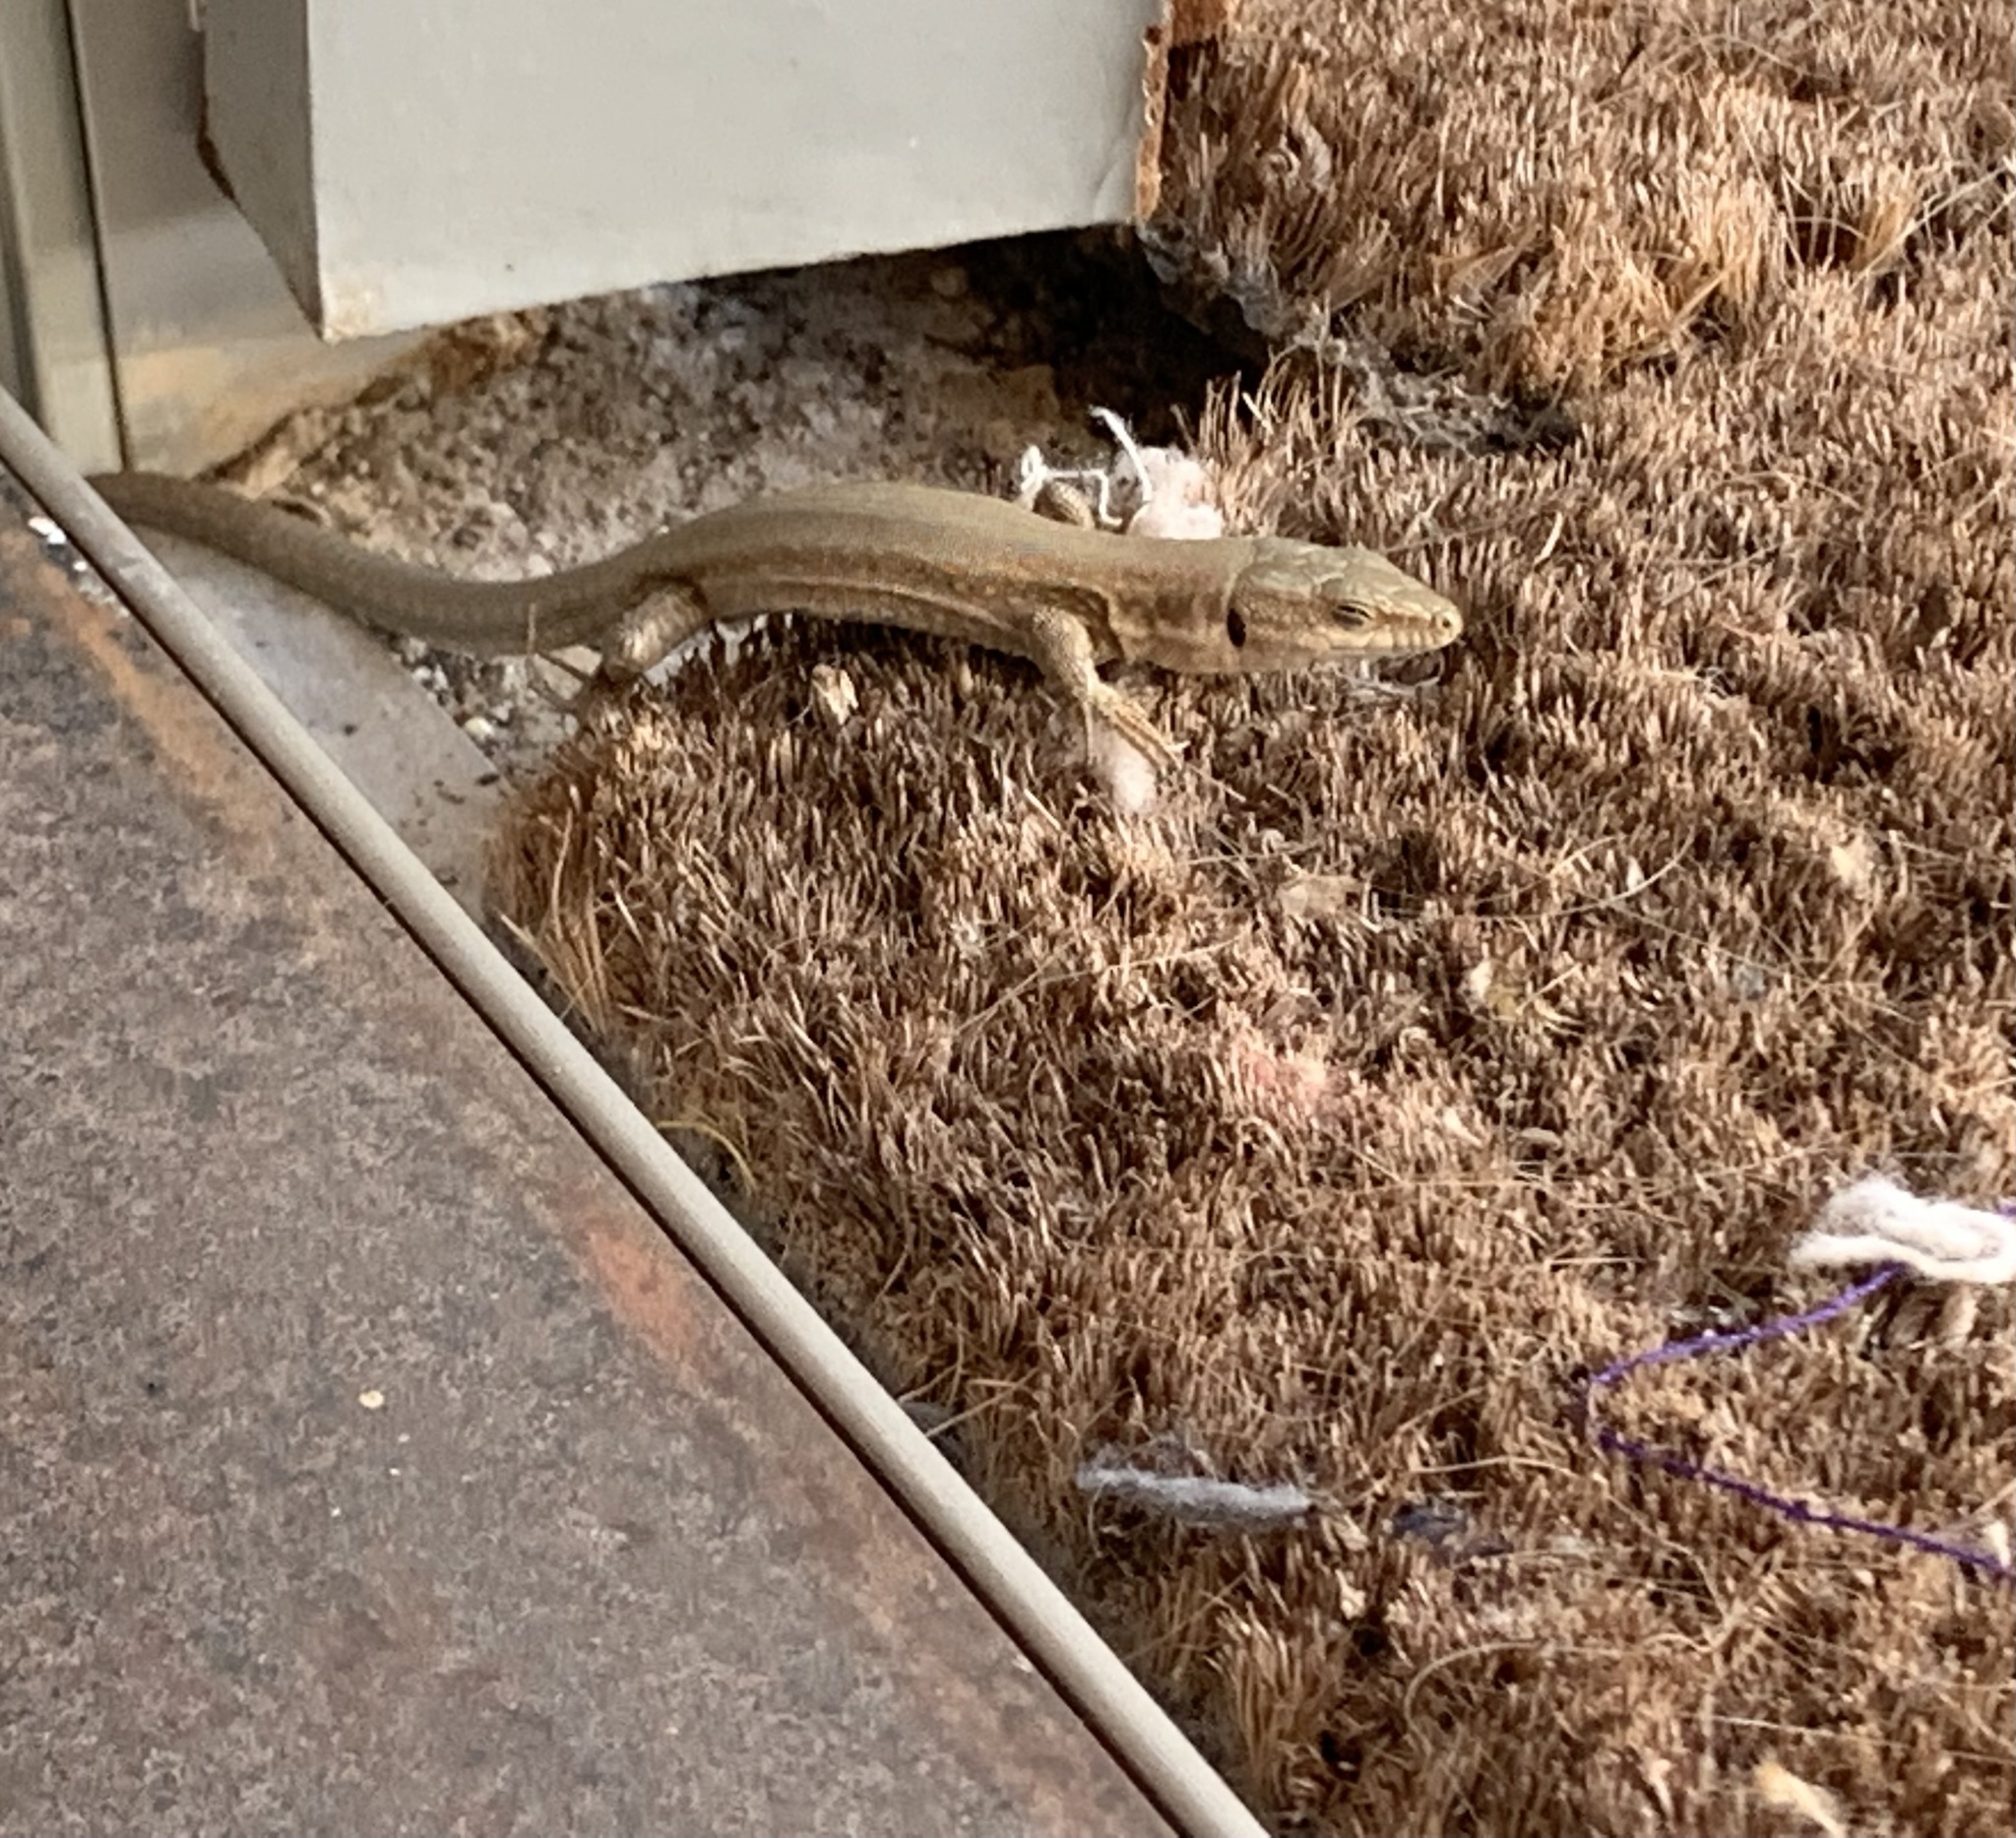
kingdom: Animalia
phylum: Chordata
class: Squamata
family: Lacertidae
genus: Podarcis
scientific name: Podarcis liolepis
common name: Catalonian wall lizard
